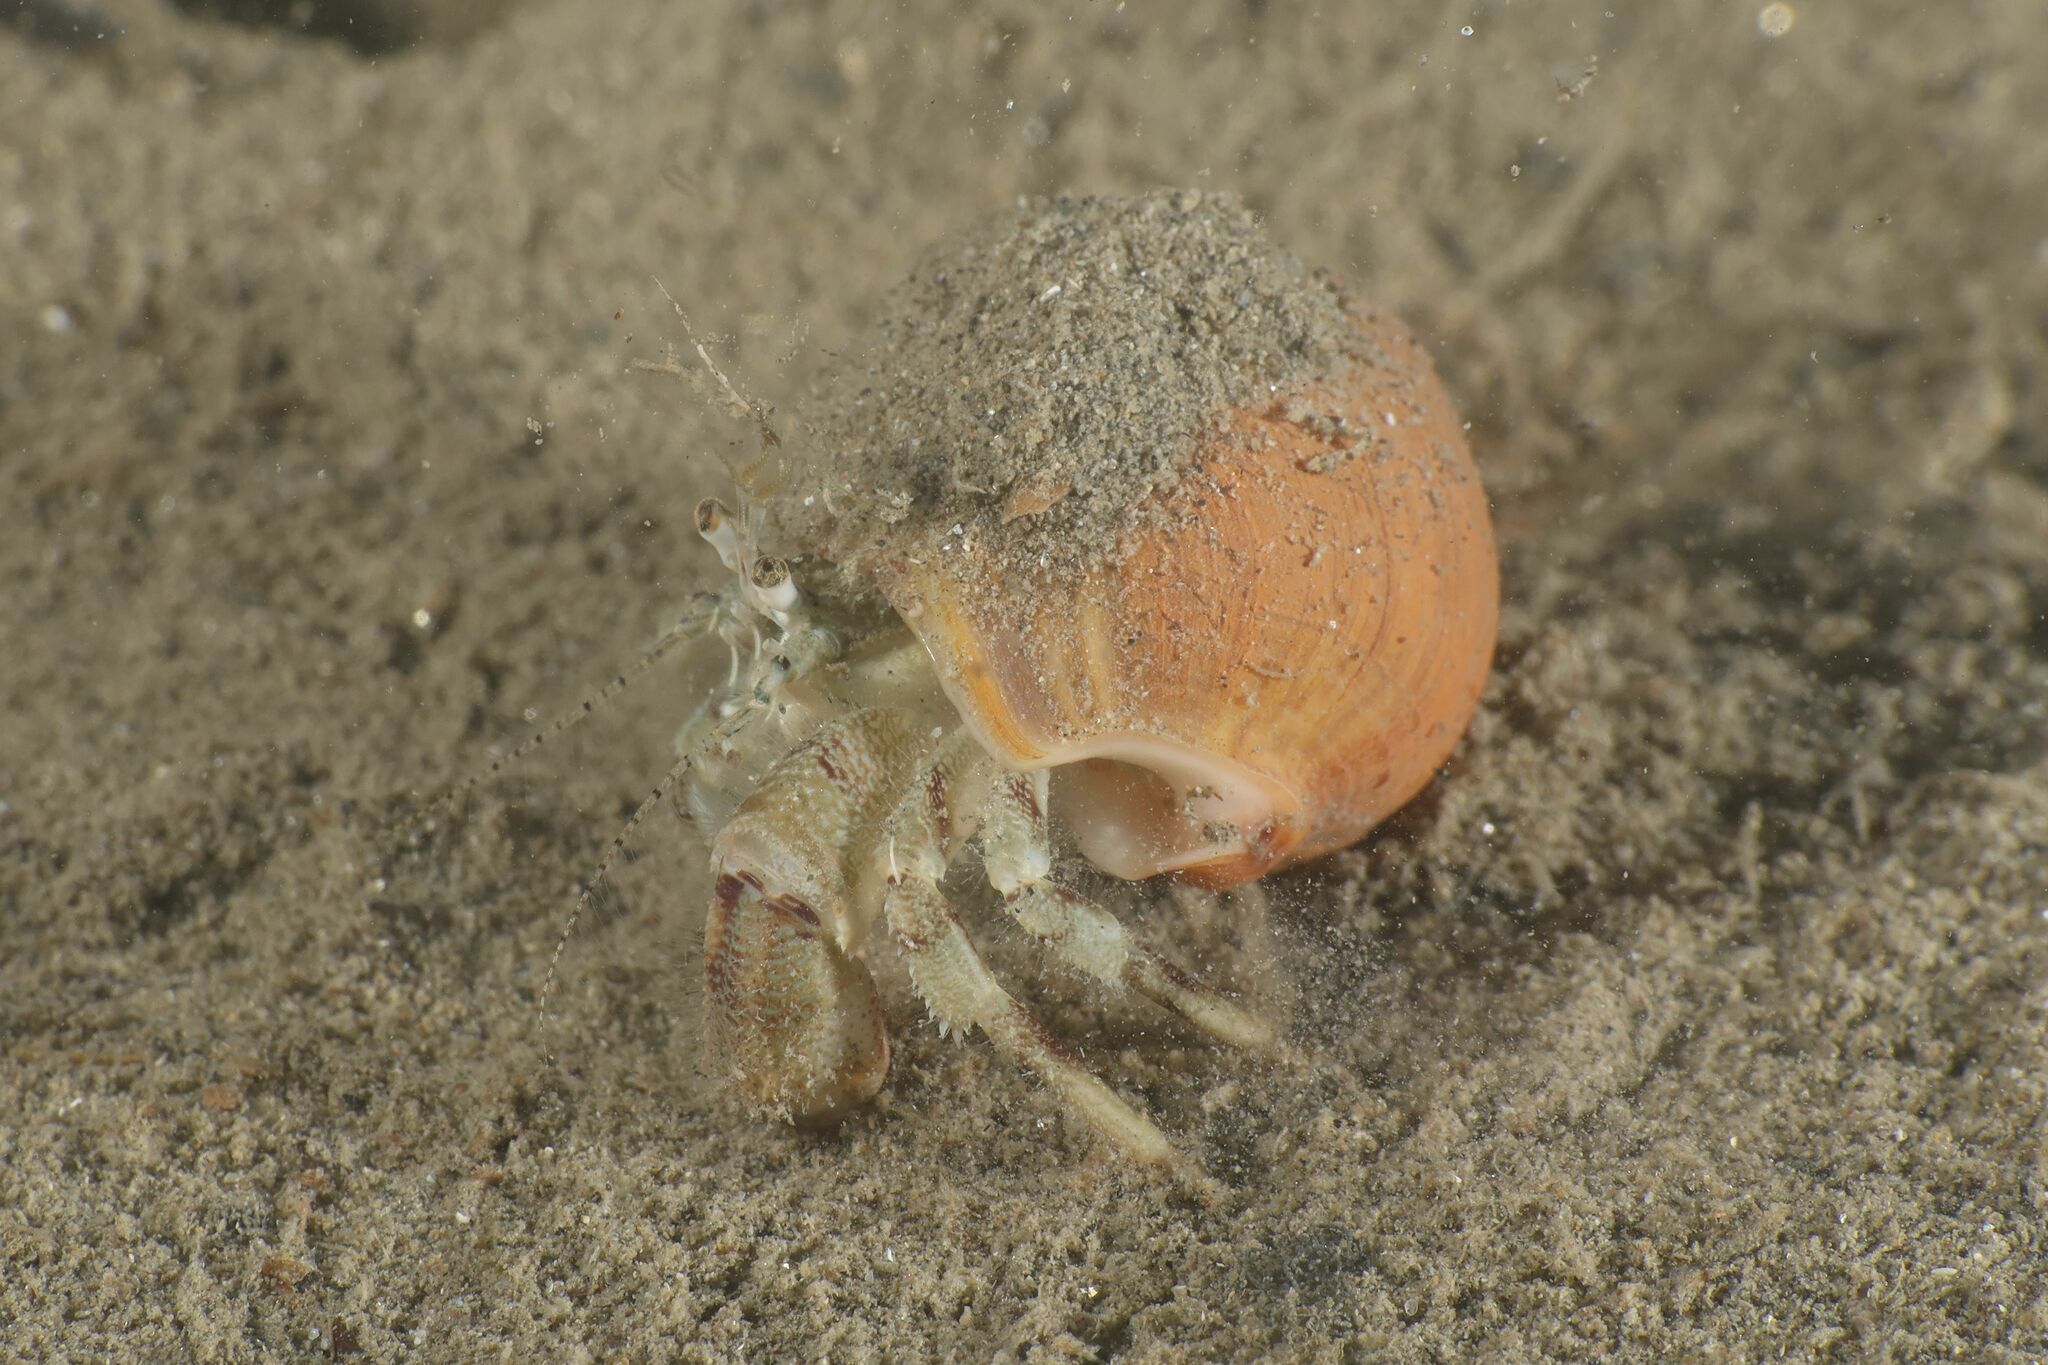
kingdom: Animalia
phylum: Arthropoda
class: Malacostraca
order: Decapoda
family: Diogenidae
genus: Diogenes
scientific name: Diogenes pugilator
